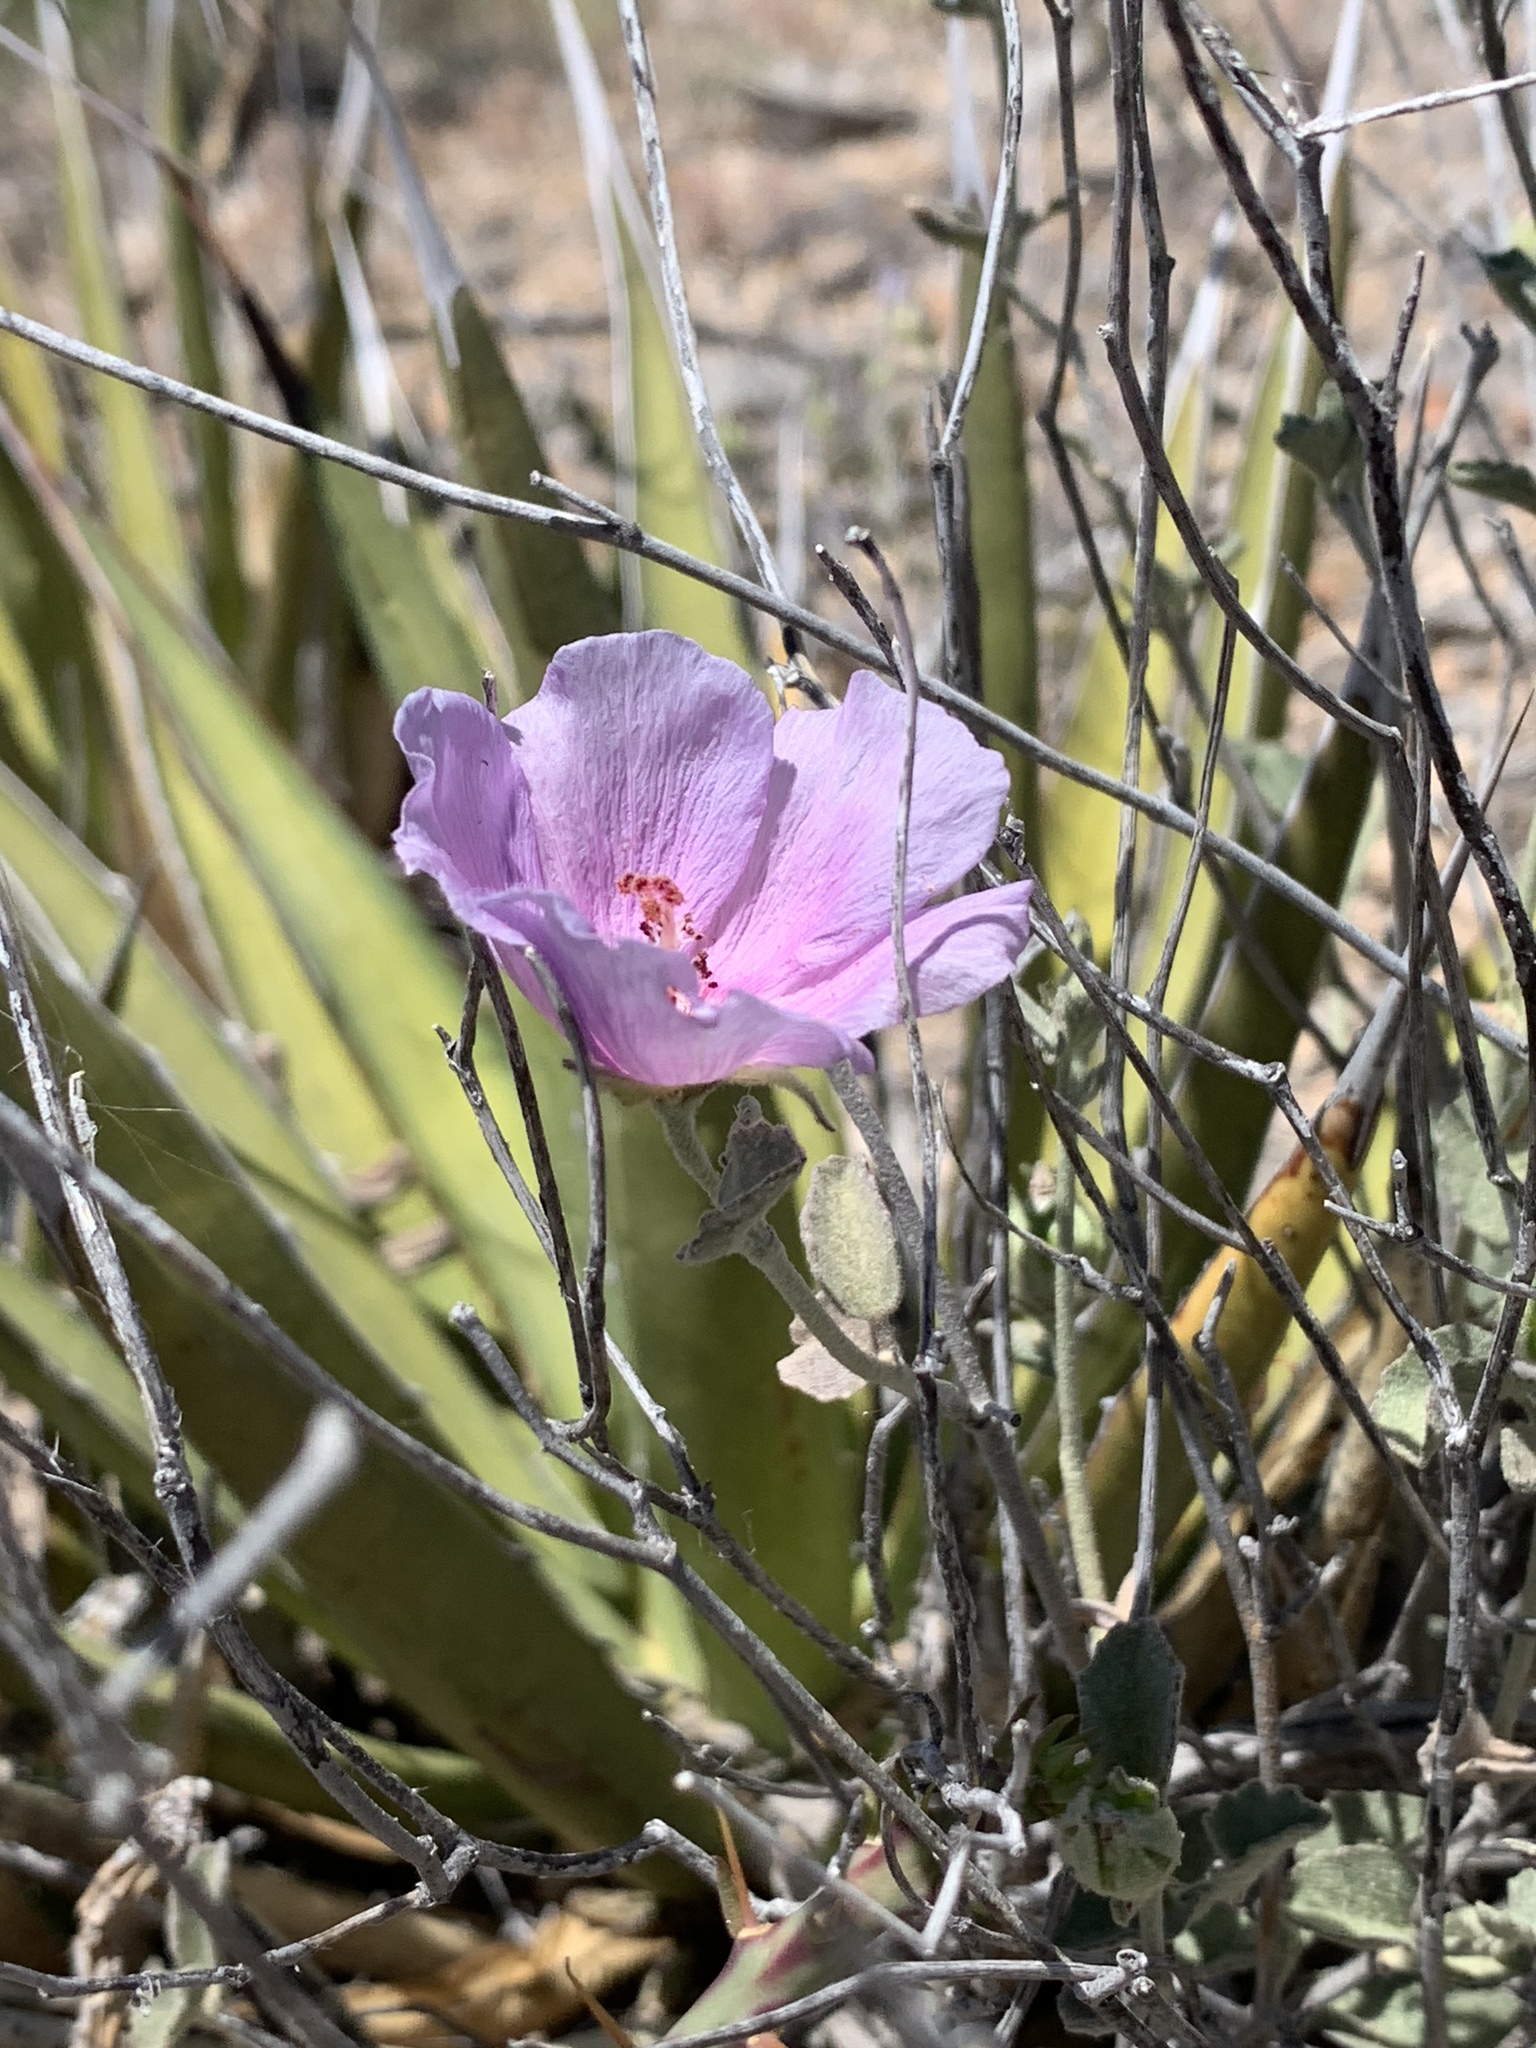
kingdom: Plantae
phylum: Tracheophyta
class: Magnoliopsida
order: Malvales
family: Malvaceae
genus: Hibiscus
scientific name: Hibiscus denudatus
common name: Paleface
